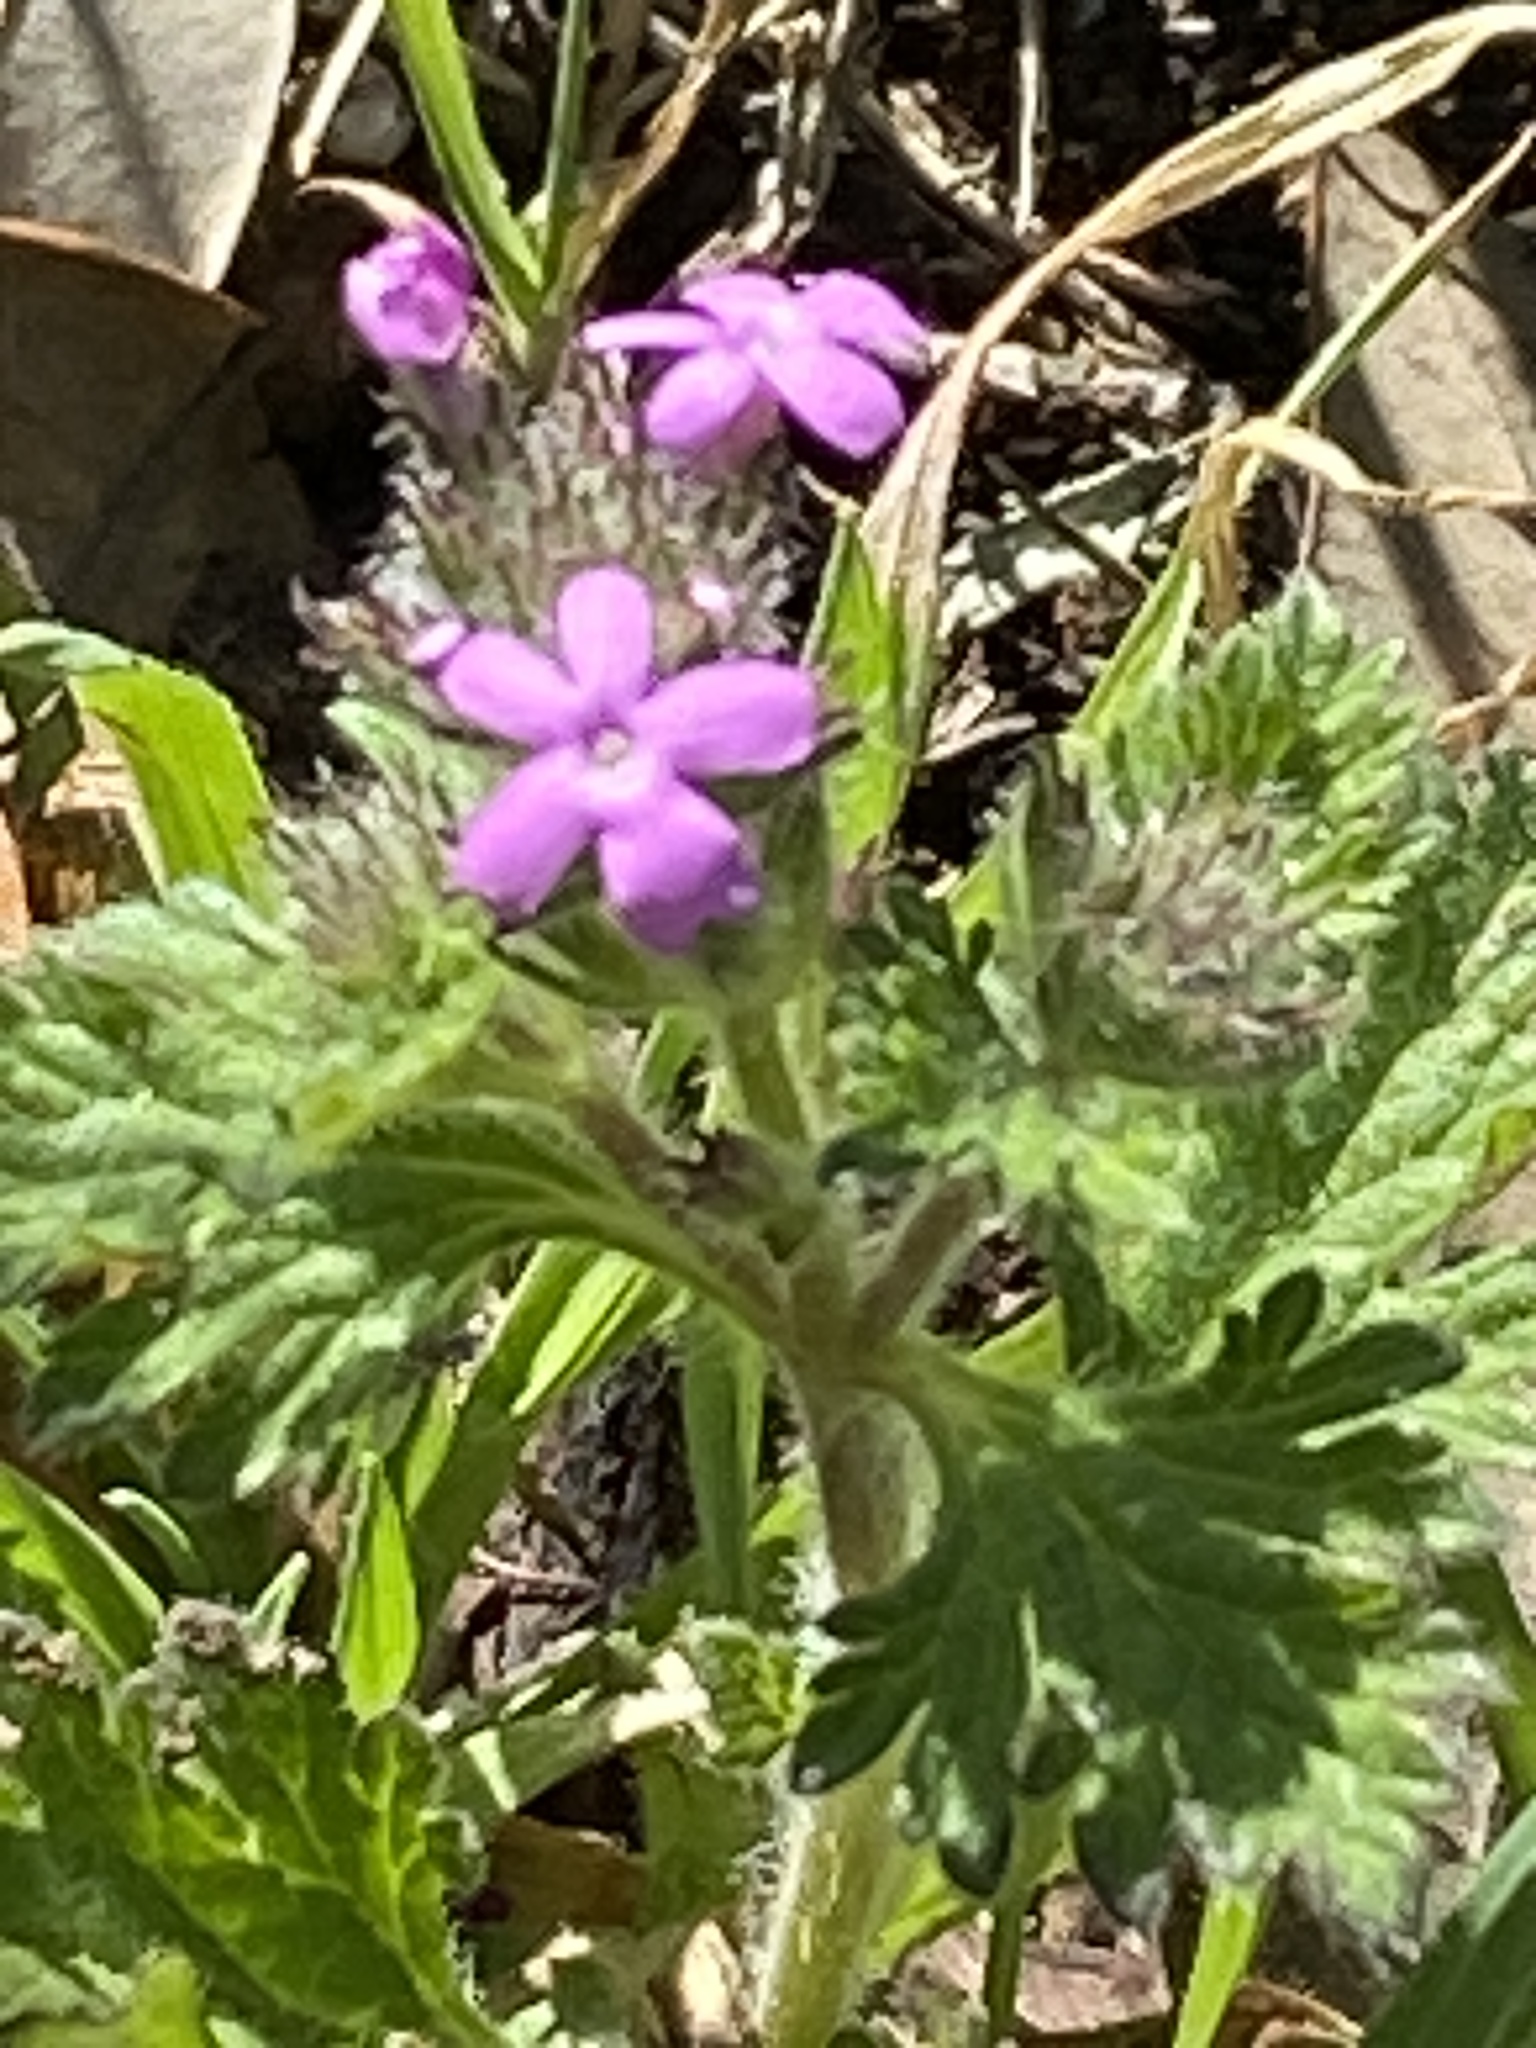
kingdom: Plantae
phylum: Tracheophyta
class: Magnoliopsida
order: Lamiales
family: Verbenaceae
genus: Verbena
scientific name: Verbena pumila
